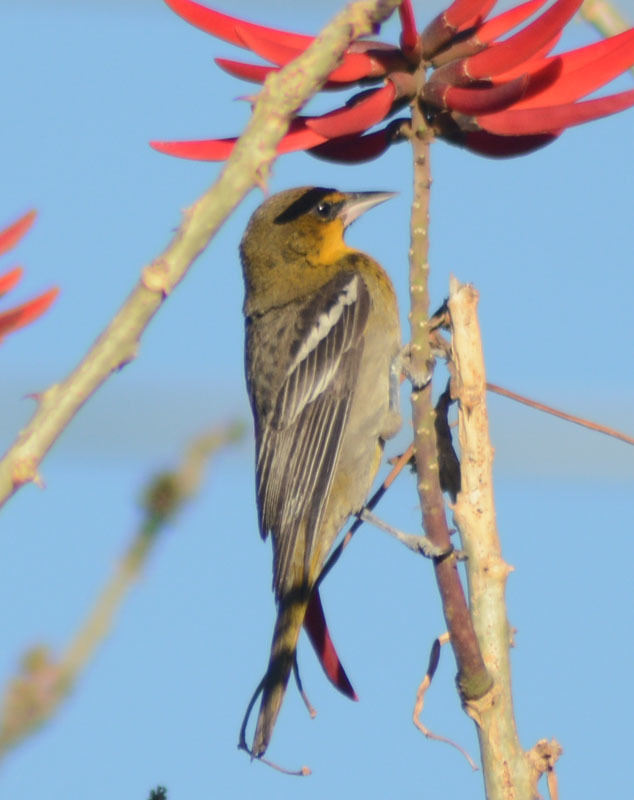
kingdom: Animalia
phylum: Chordata
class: Aves
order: Passeriformes
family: Icteridae
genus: Icterus
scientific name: Icterus abeillei
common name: Black-backed oriole
